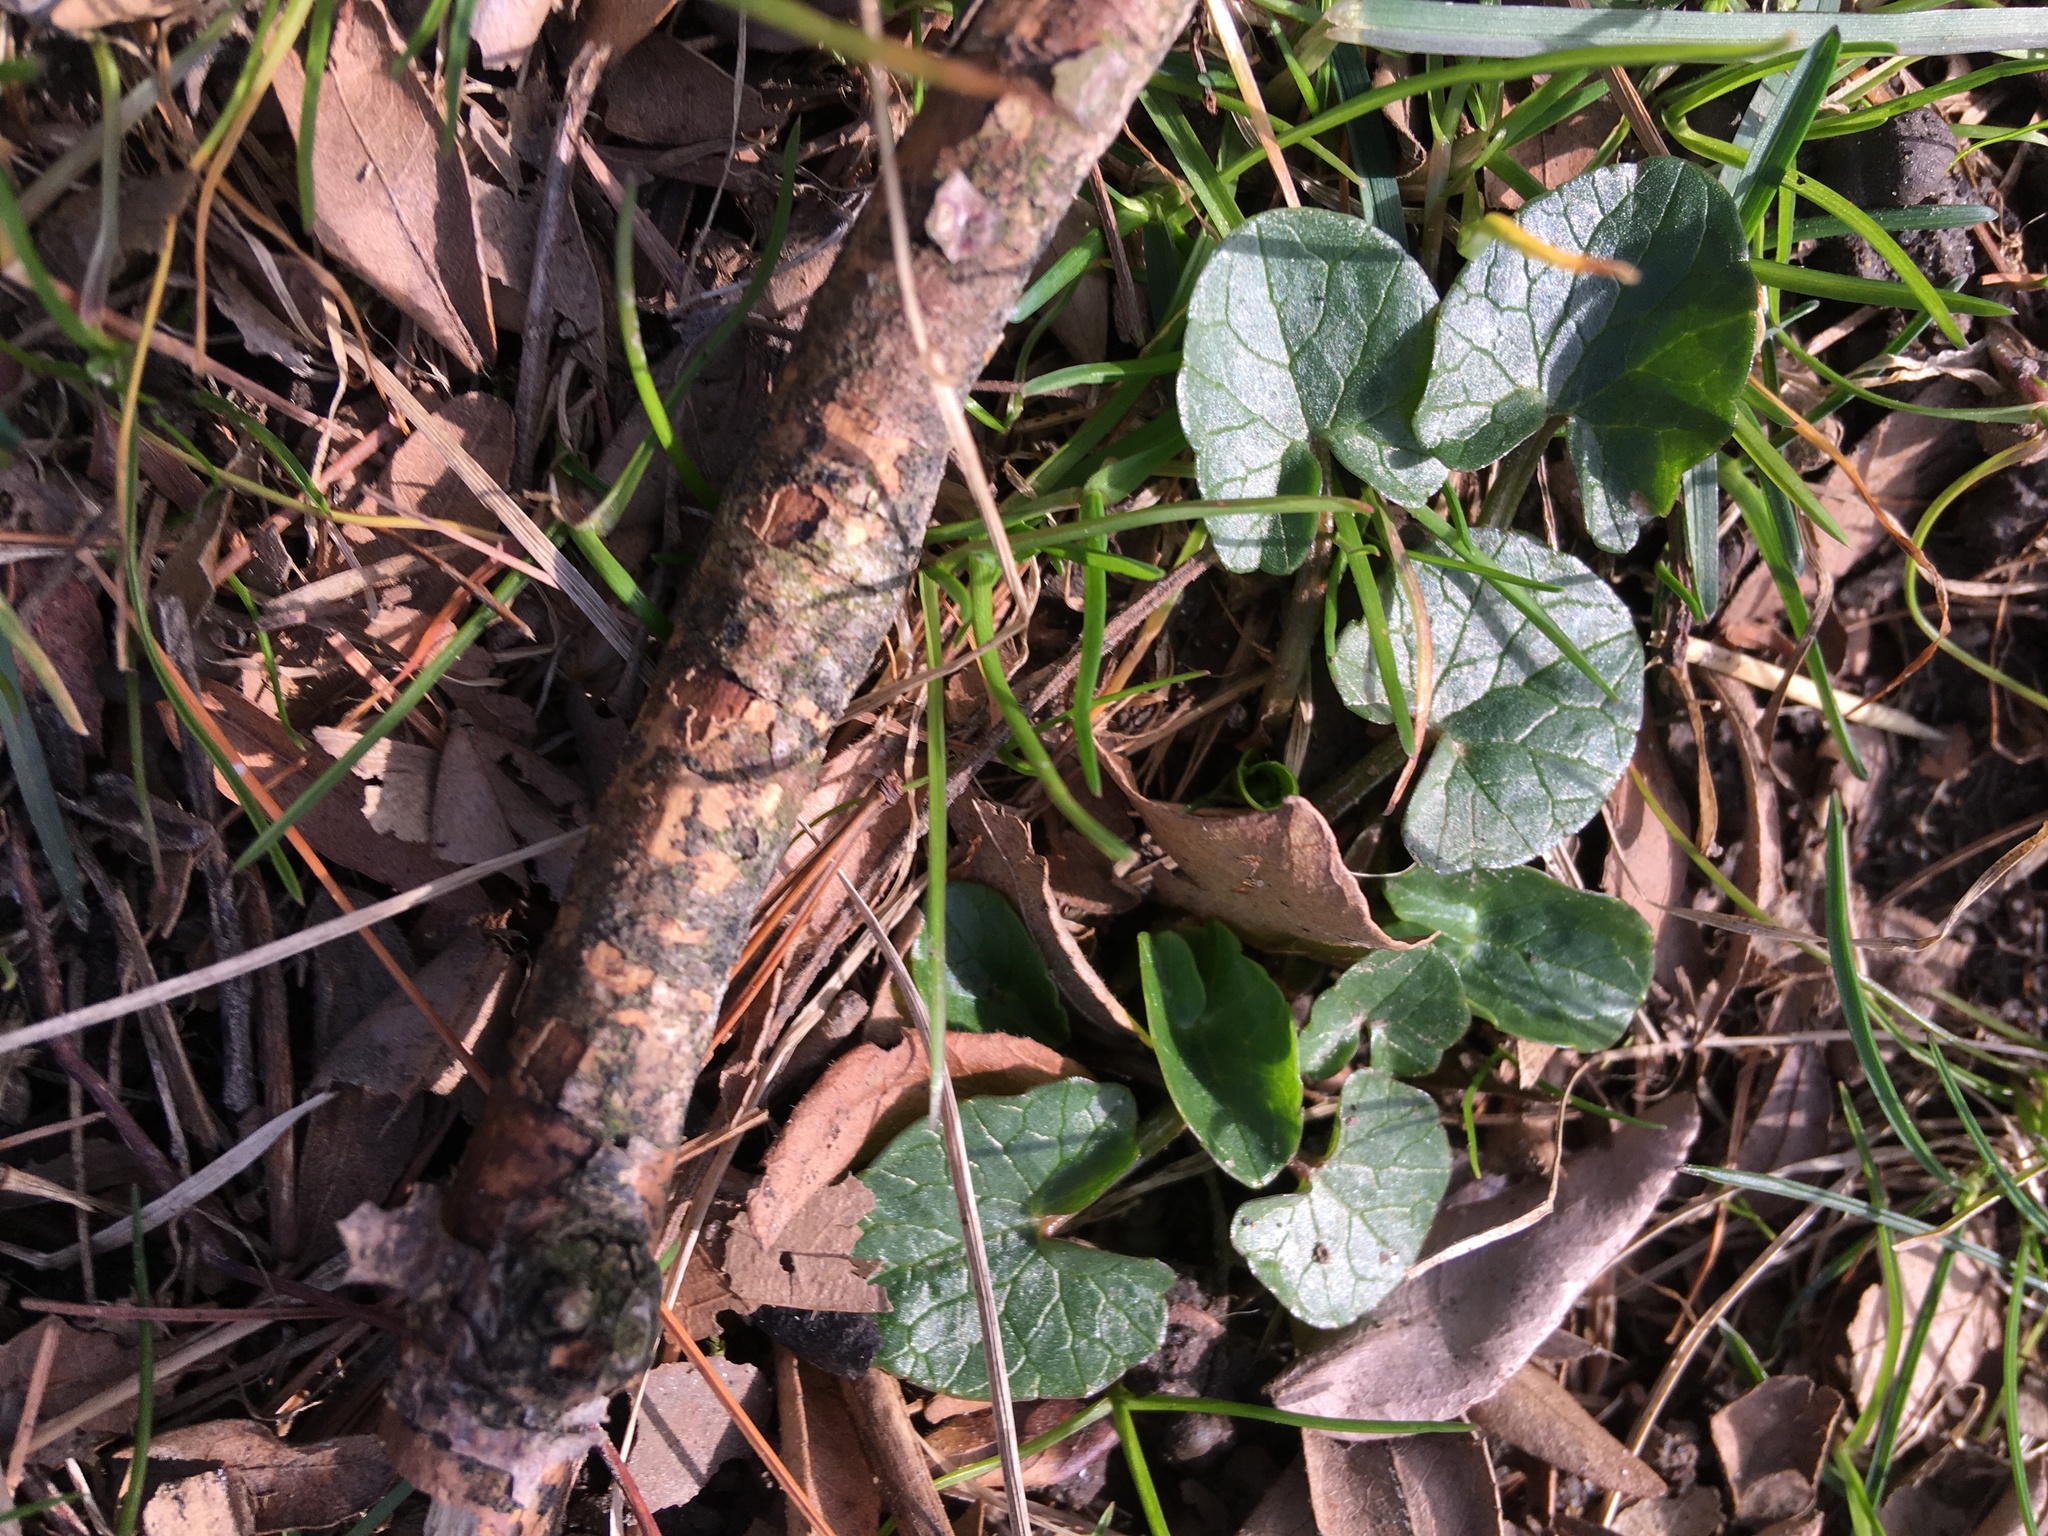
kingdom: Plantae
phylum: Tracheophyta
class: Magnoliopsida
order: Ranunculales
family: Ranunculaceae
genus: Ficaria
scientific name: Ficaria verna
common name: Lesser celandine
